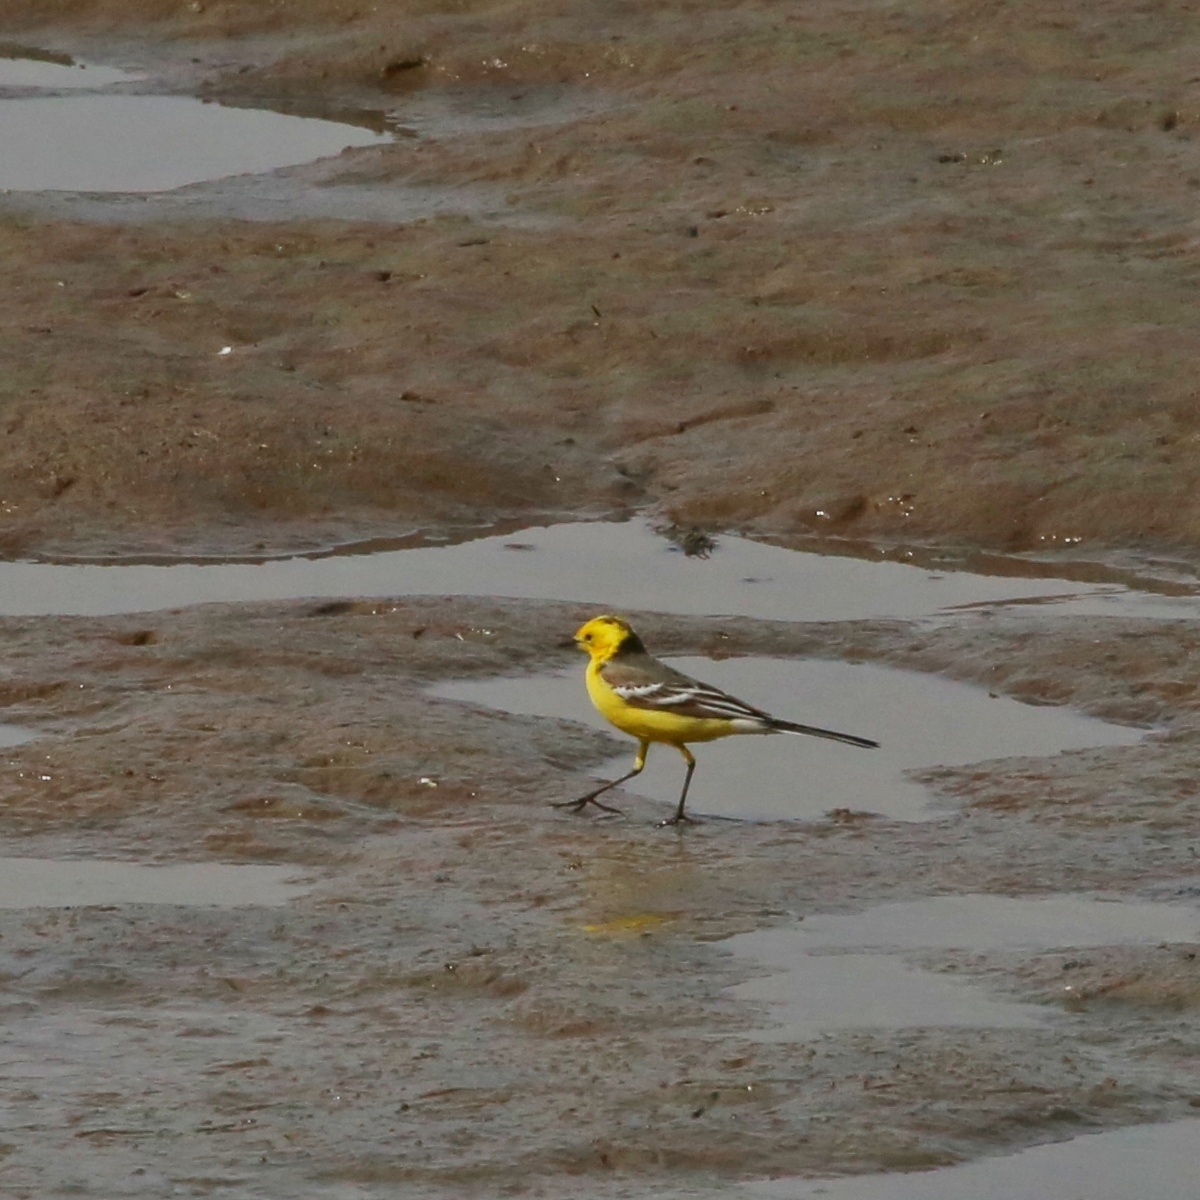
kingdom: Animalia
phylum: Chordata
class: Aves
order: Passeriformes
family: Motacillidae
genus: Motacilla
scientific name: Motacilla citreola
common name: Citrine wagtail
